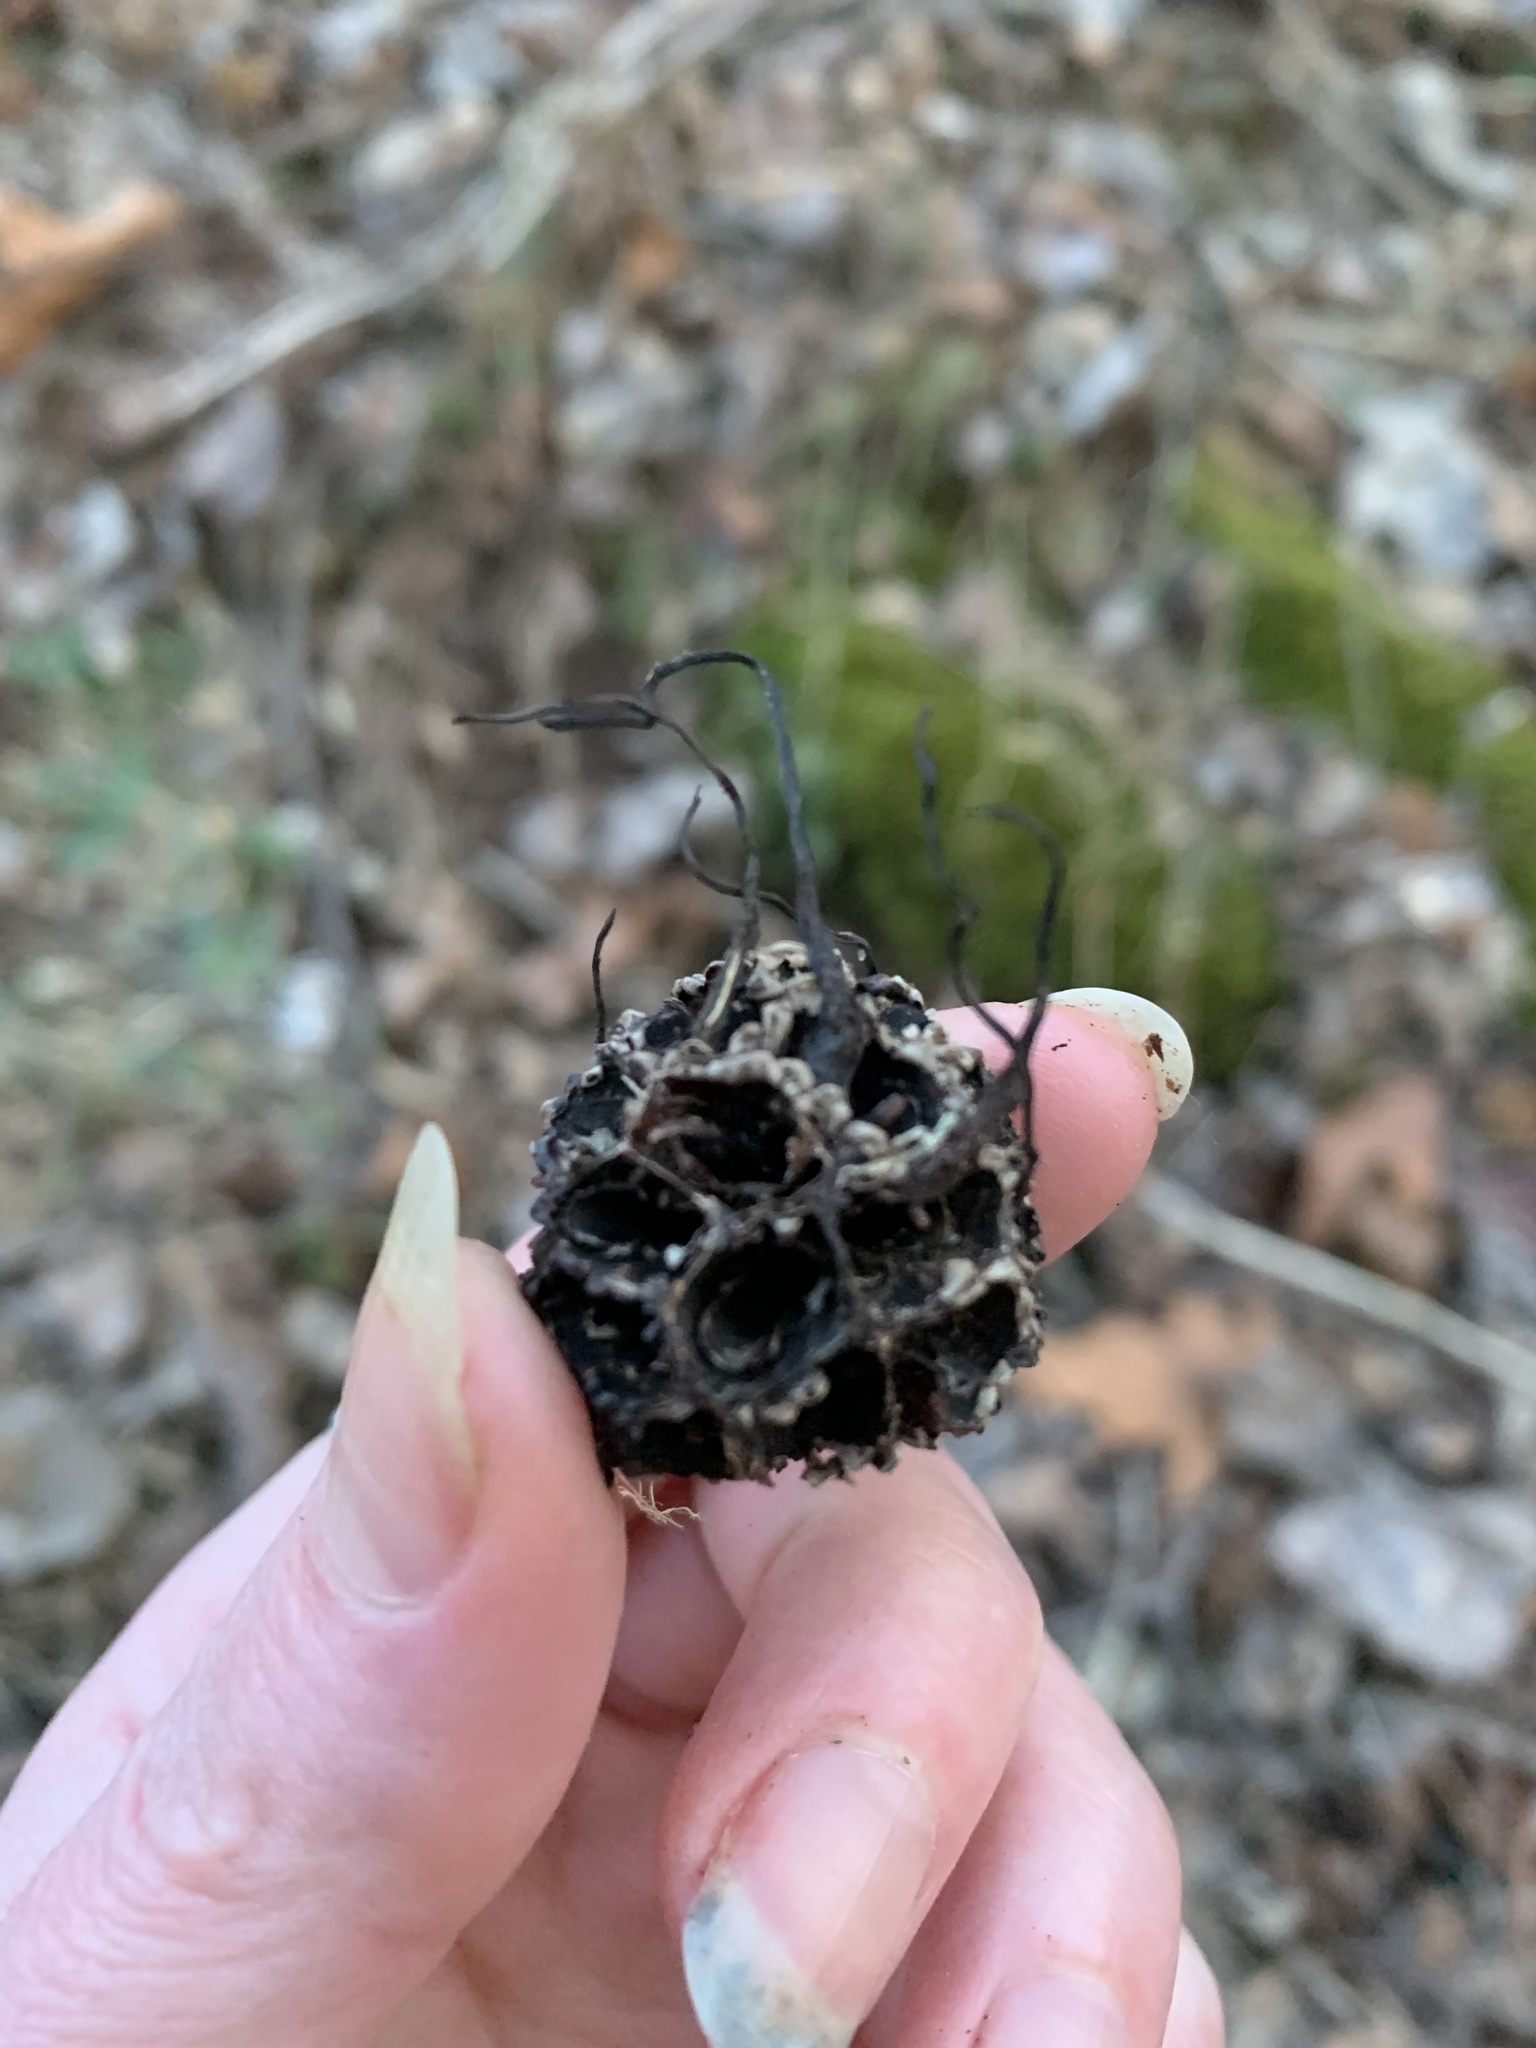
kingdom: Fungi
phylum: Ascomycota
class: Sordariomycetes
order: Xylariales
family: Xylariaceae
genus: Xylaria
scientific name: Xylaria liquidambaris
